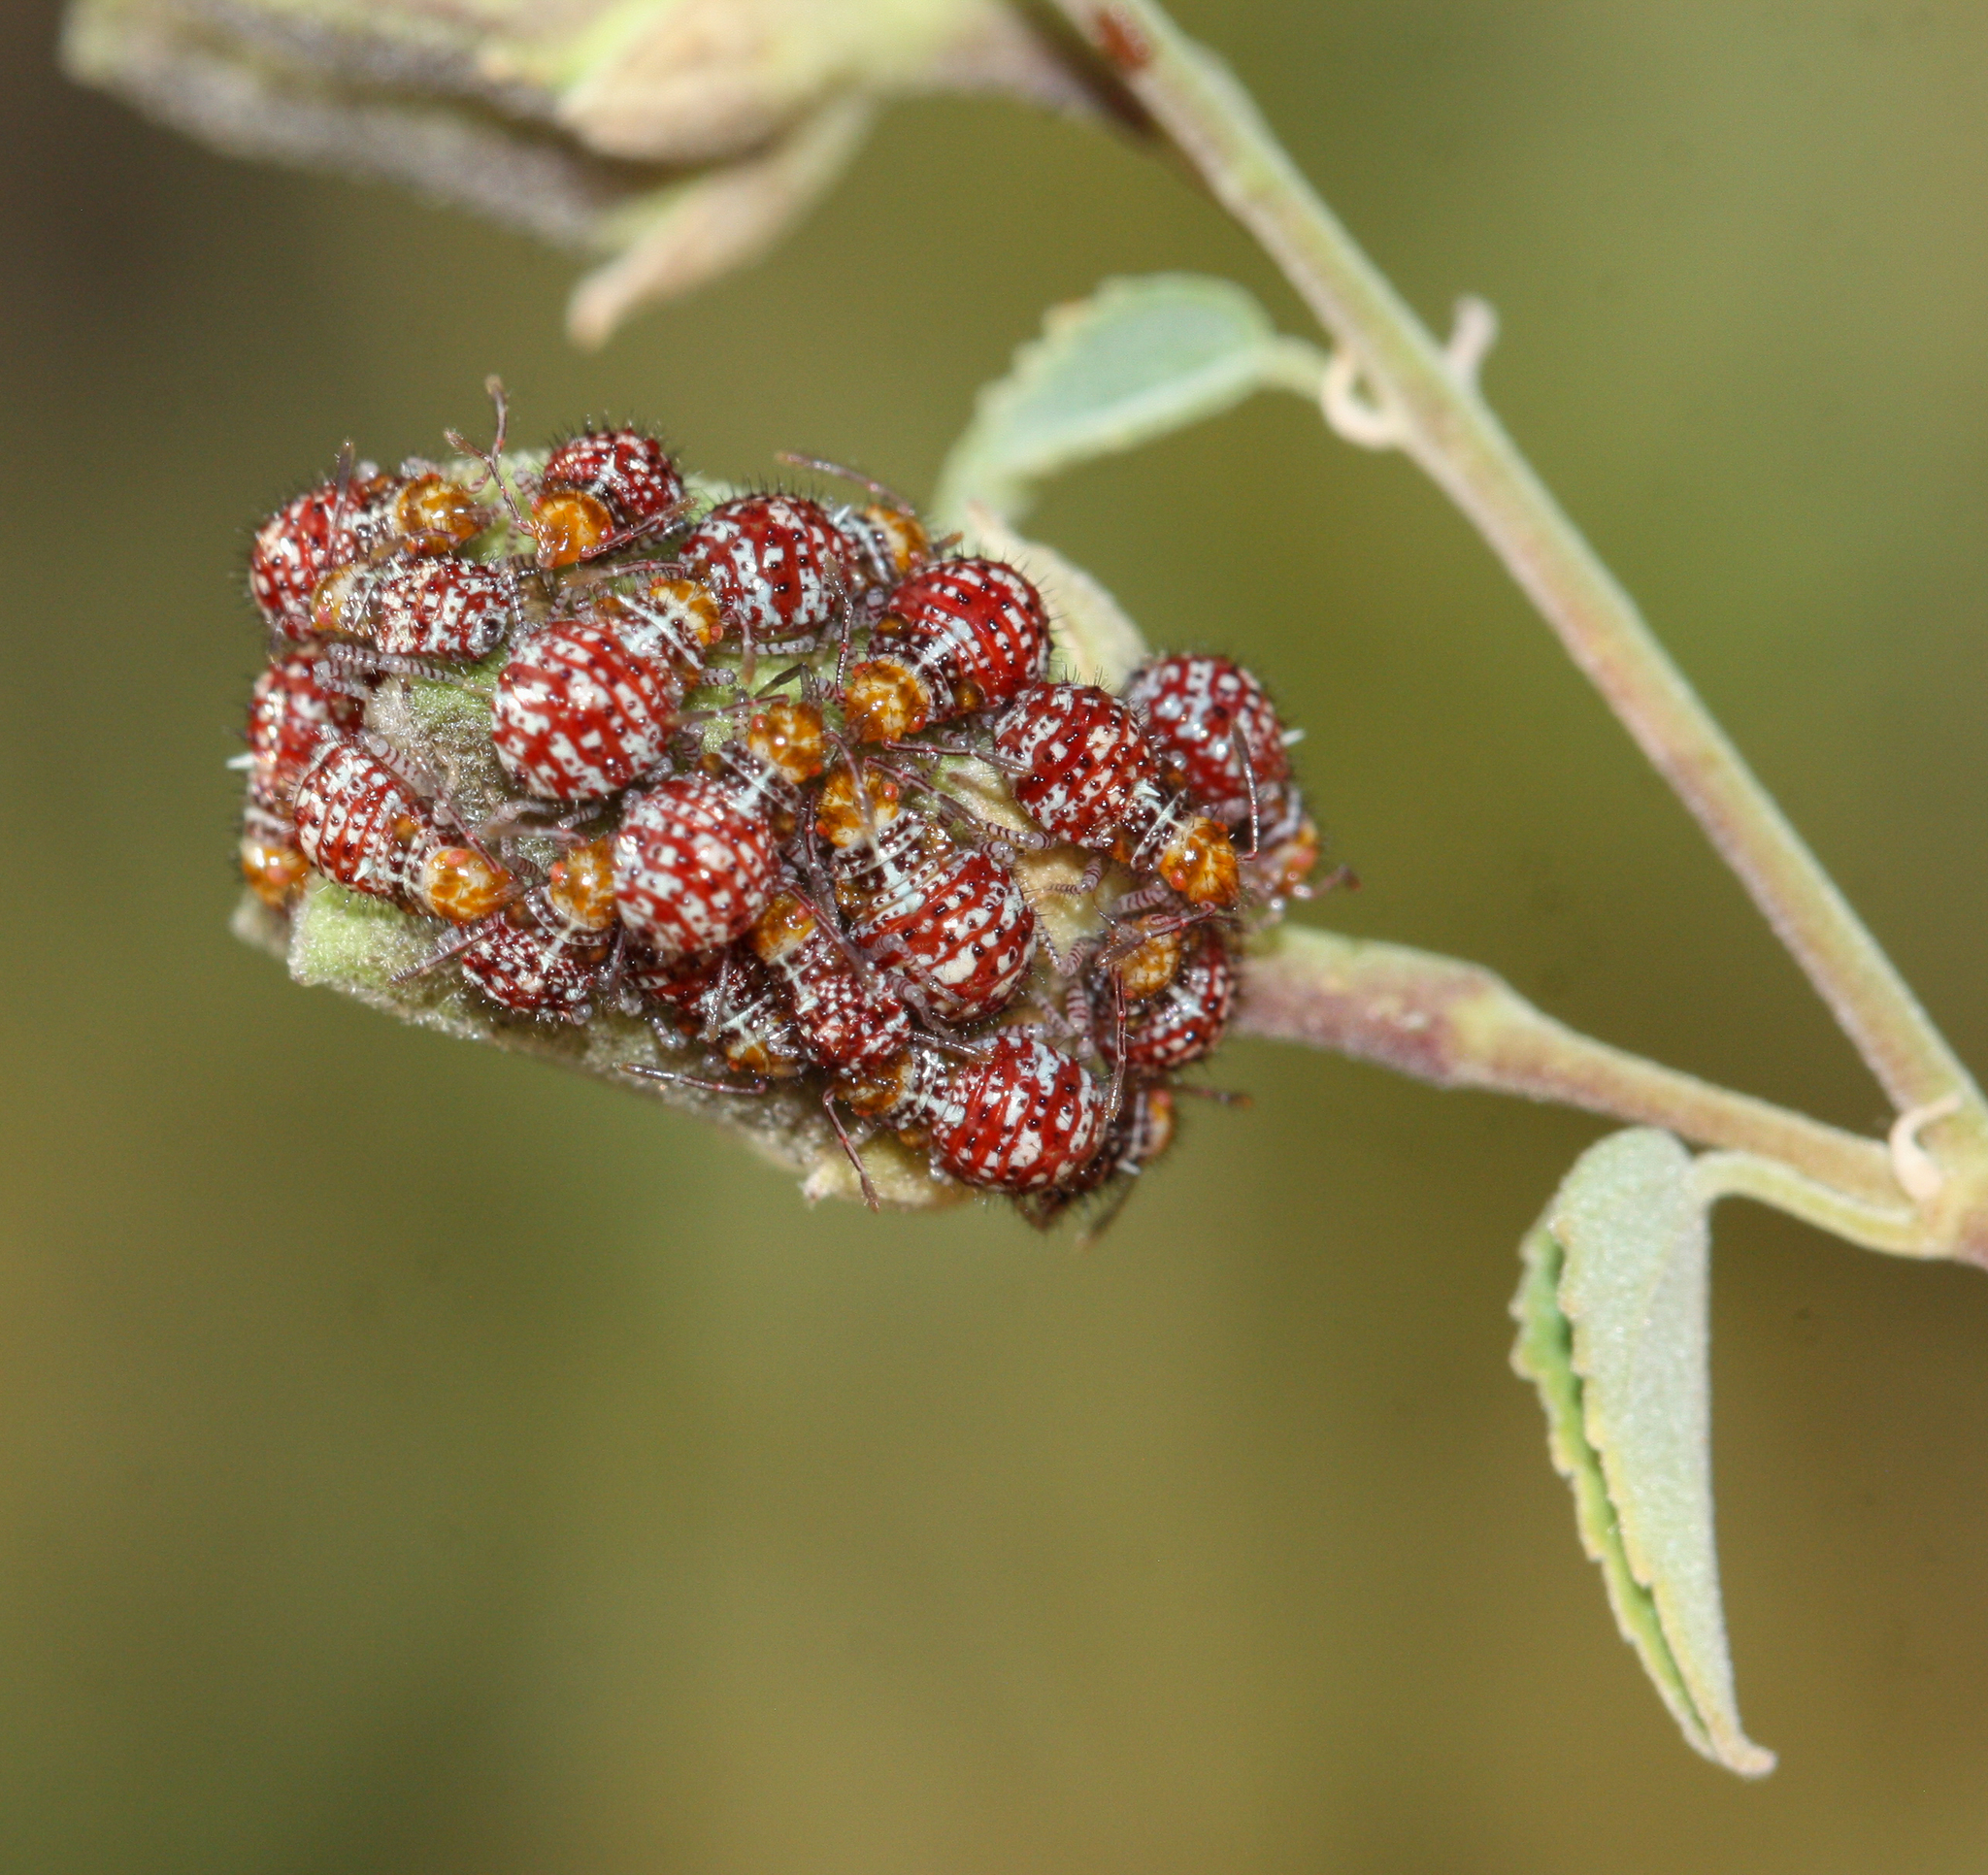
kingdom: Animalia
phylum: Arthropoda
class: Insecta
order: Hemiptera
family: Rhopalidae
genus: Niesthrea
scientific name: Niesthrea louisianica
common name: Scentless plant bug
